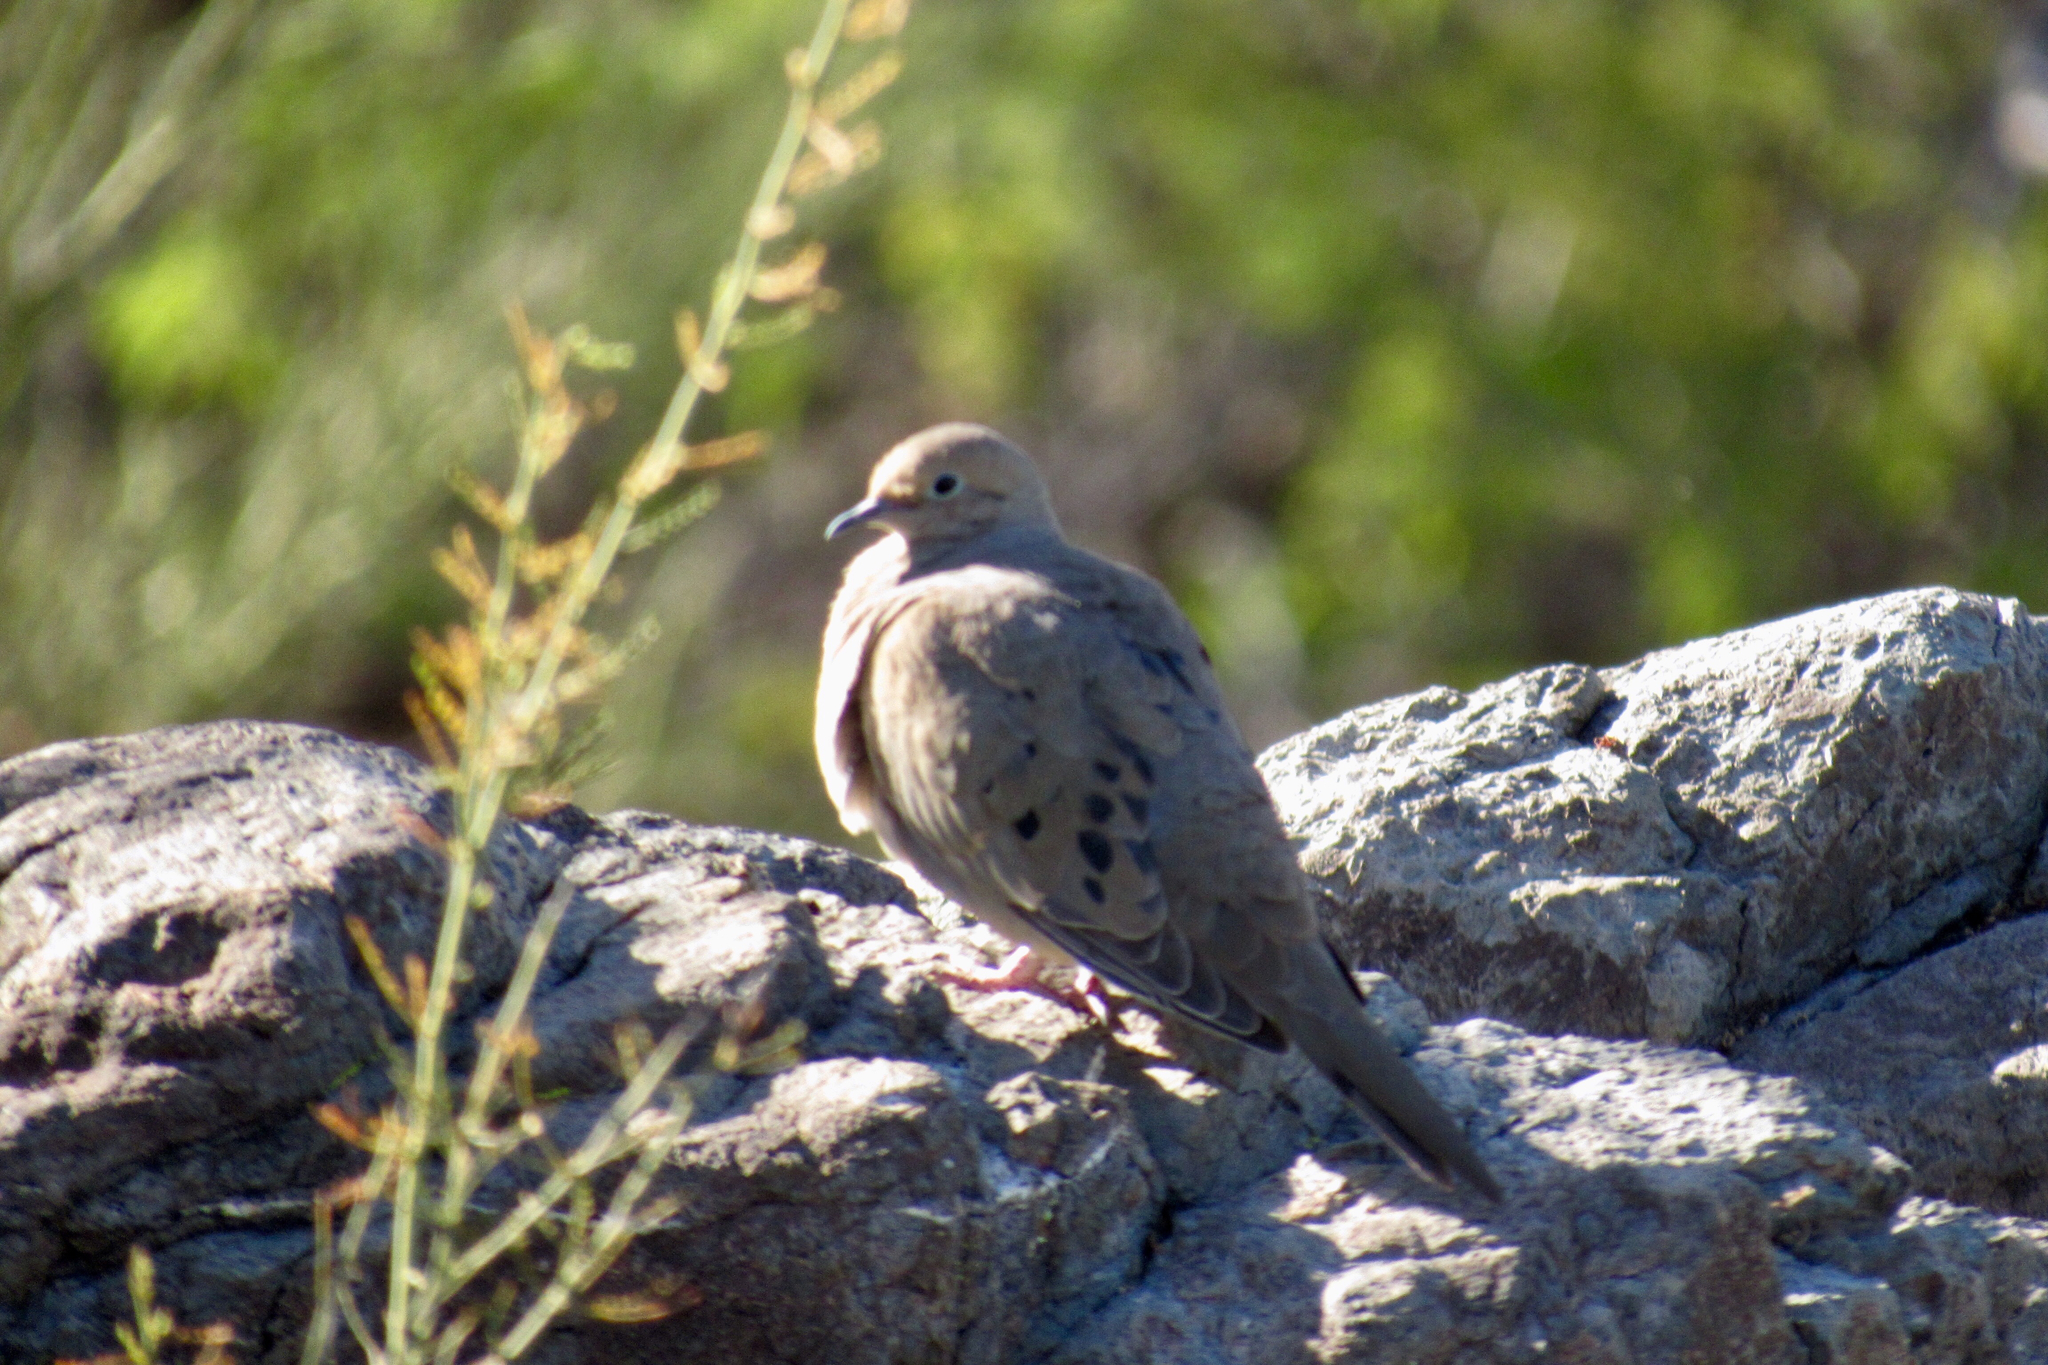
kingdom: Animalia
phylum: Chordata
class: Aves
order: Columbiformes
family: Columbidae
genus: Zenaida
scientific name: Zenaida macroura
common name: Mourning dove
